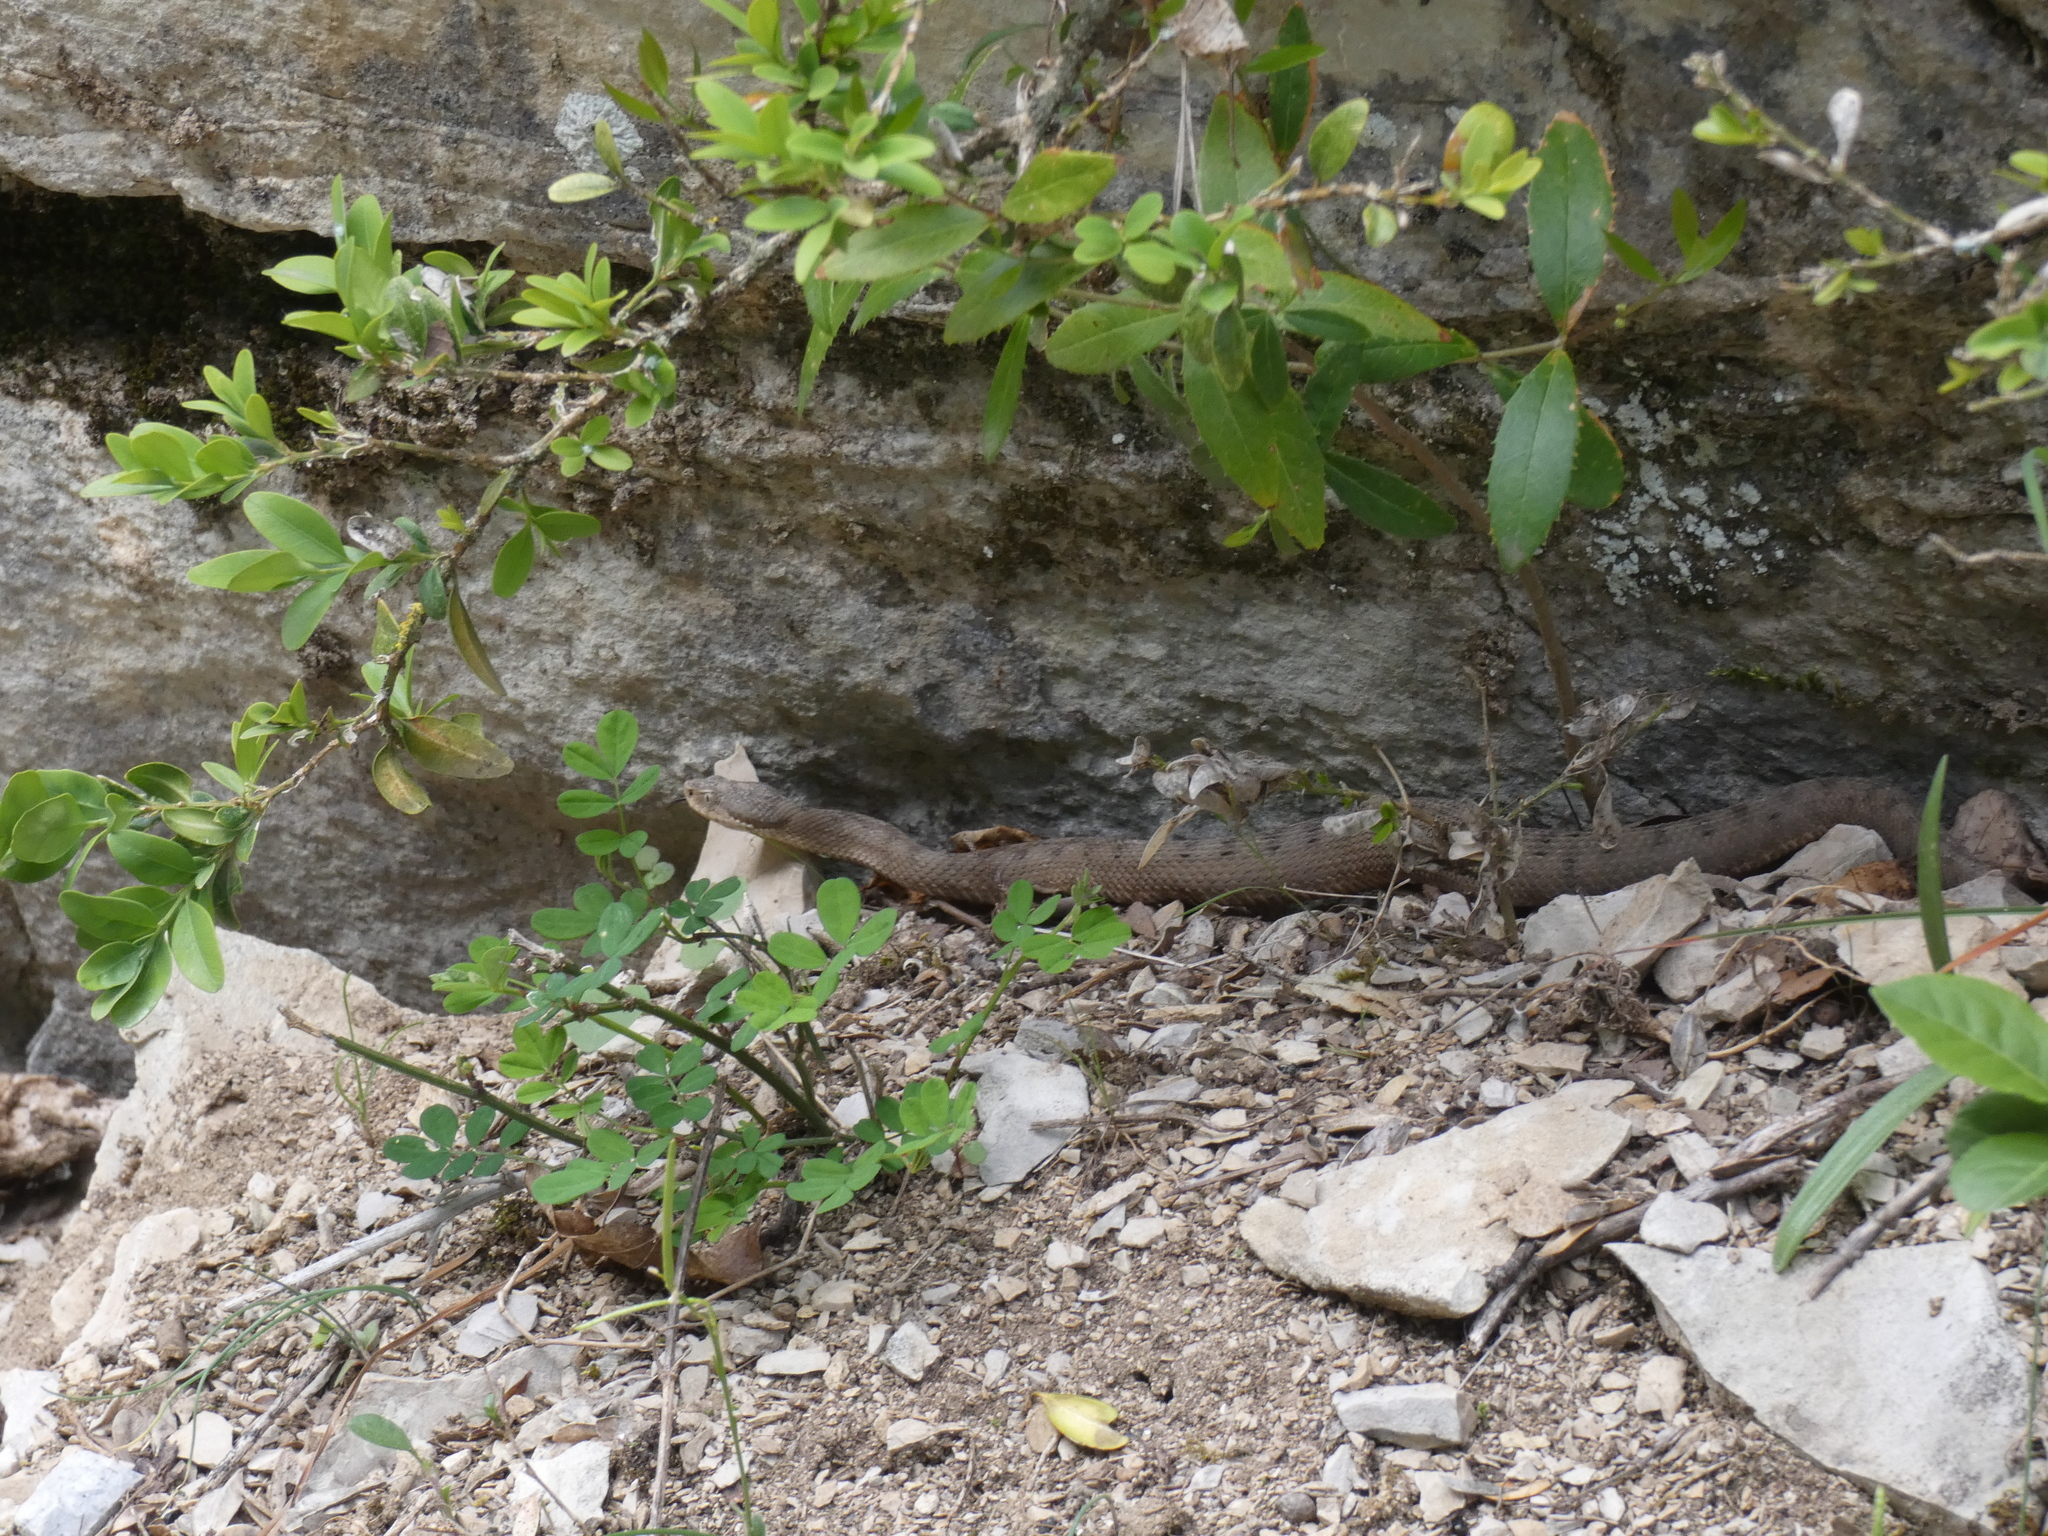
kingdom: Animalia
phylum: Chordata
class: Squamata
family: Viperidae
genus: Vipera
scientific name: Vipera aspis
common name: Asp viper
